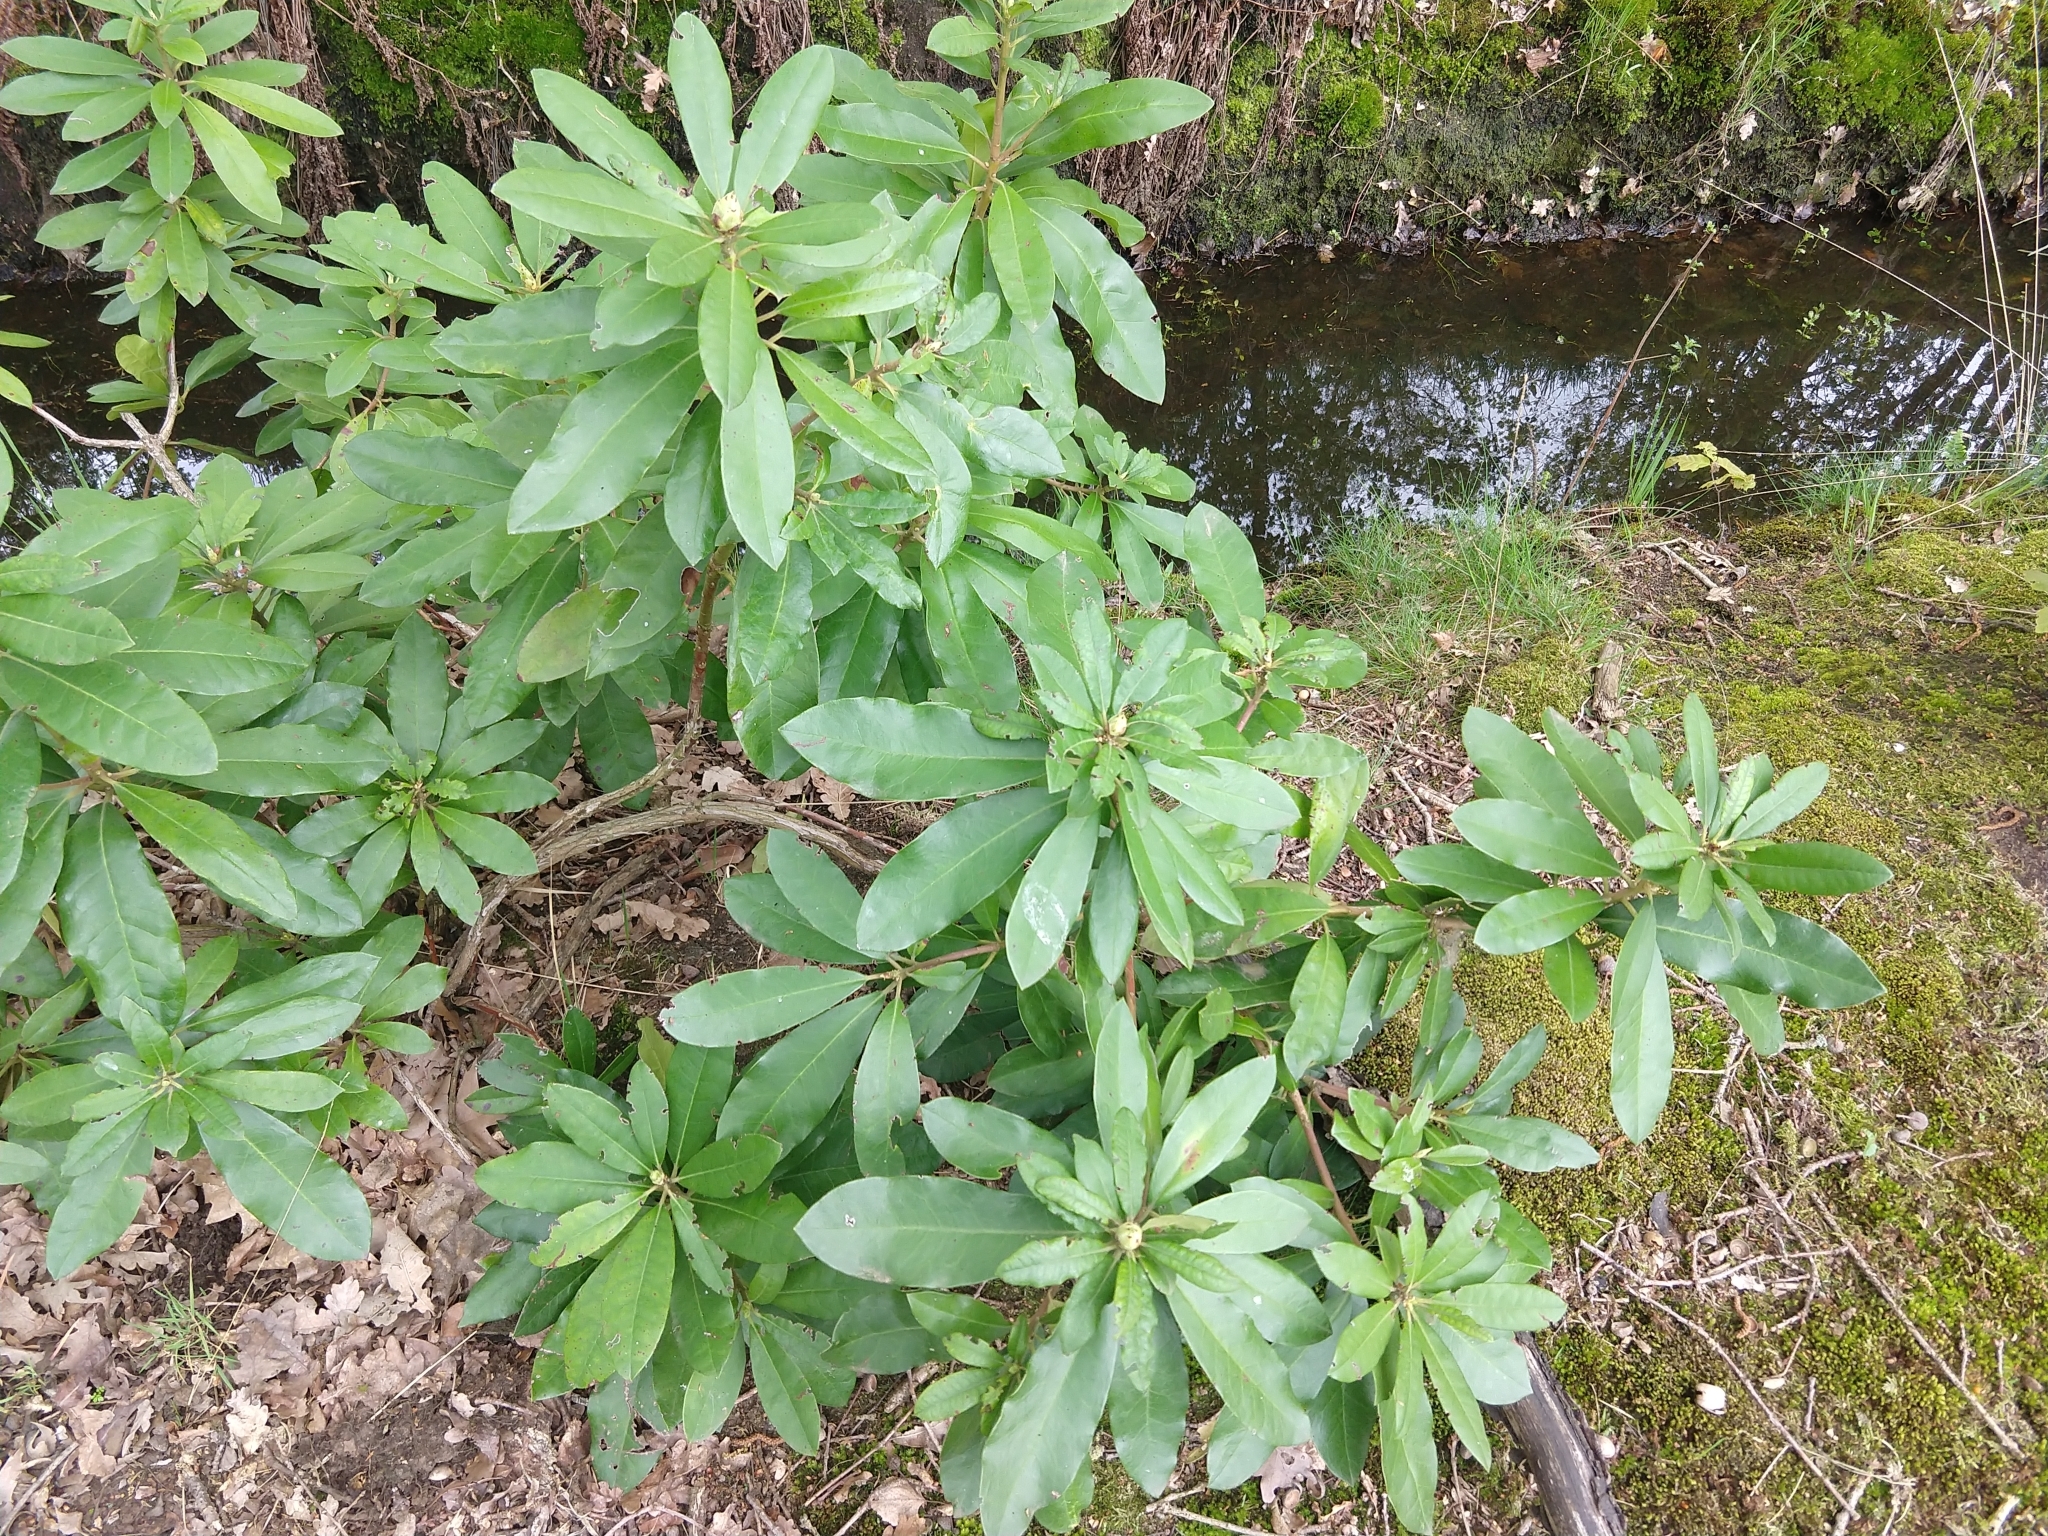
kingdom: Plantae
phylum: Tracheophyta
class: Magnoliopsida
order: Ericales
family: Ericaceae
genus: Rhododendron
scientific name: Rhododendron ponticum
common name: Rhododendron
